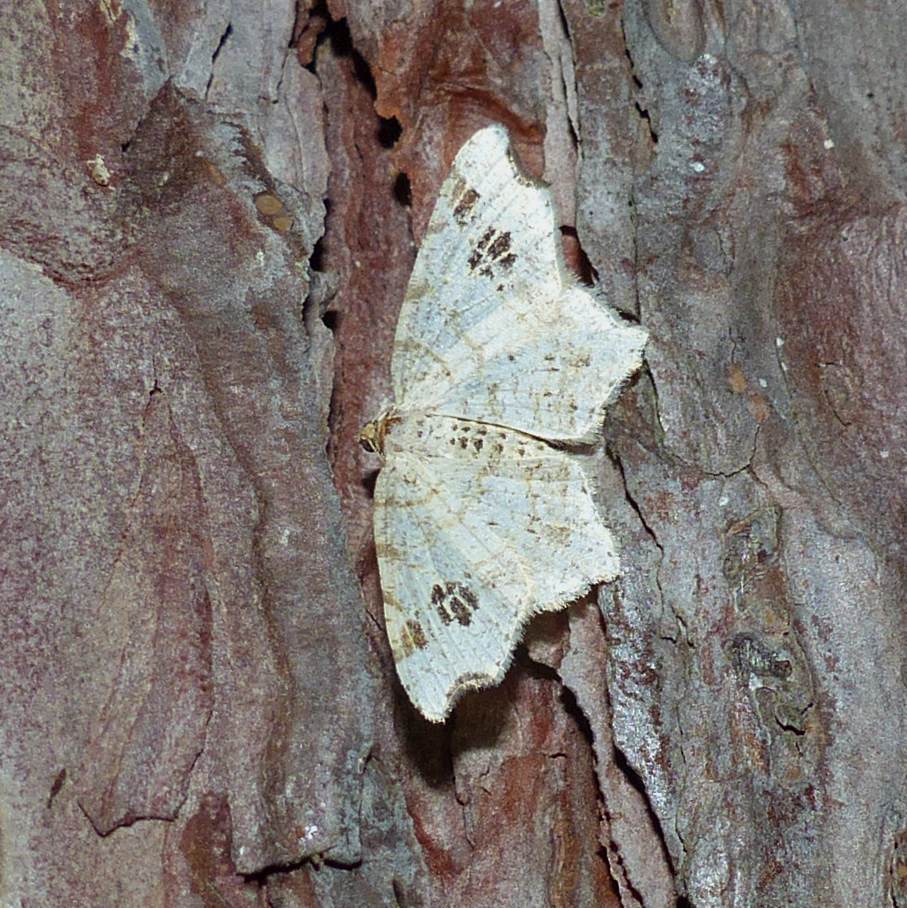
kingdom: Animalia
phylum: Arthropoda
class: Insecta
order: Lepidoptera
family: Geometridae
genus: Macaria
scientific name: Macaria aemulataria
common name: Common angle
